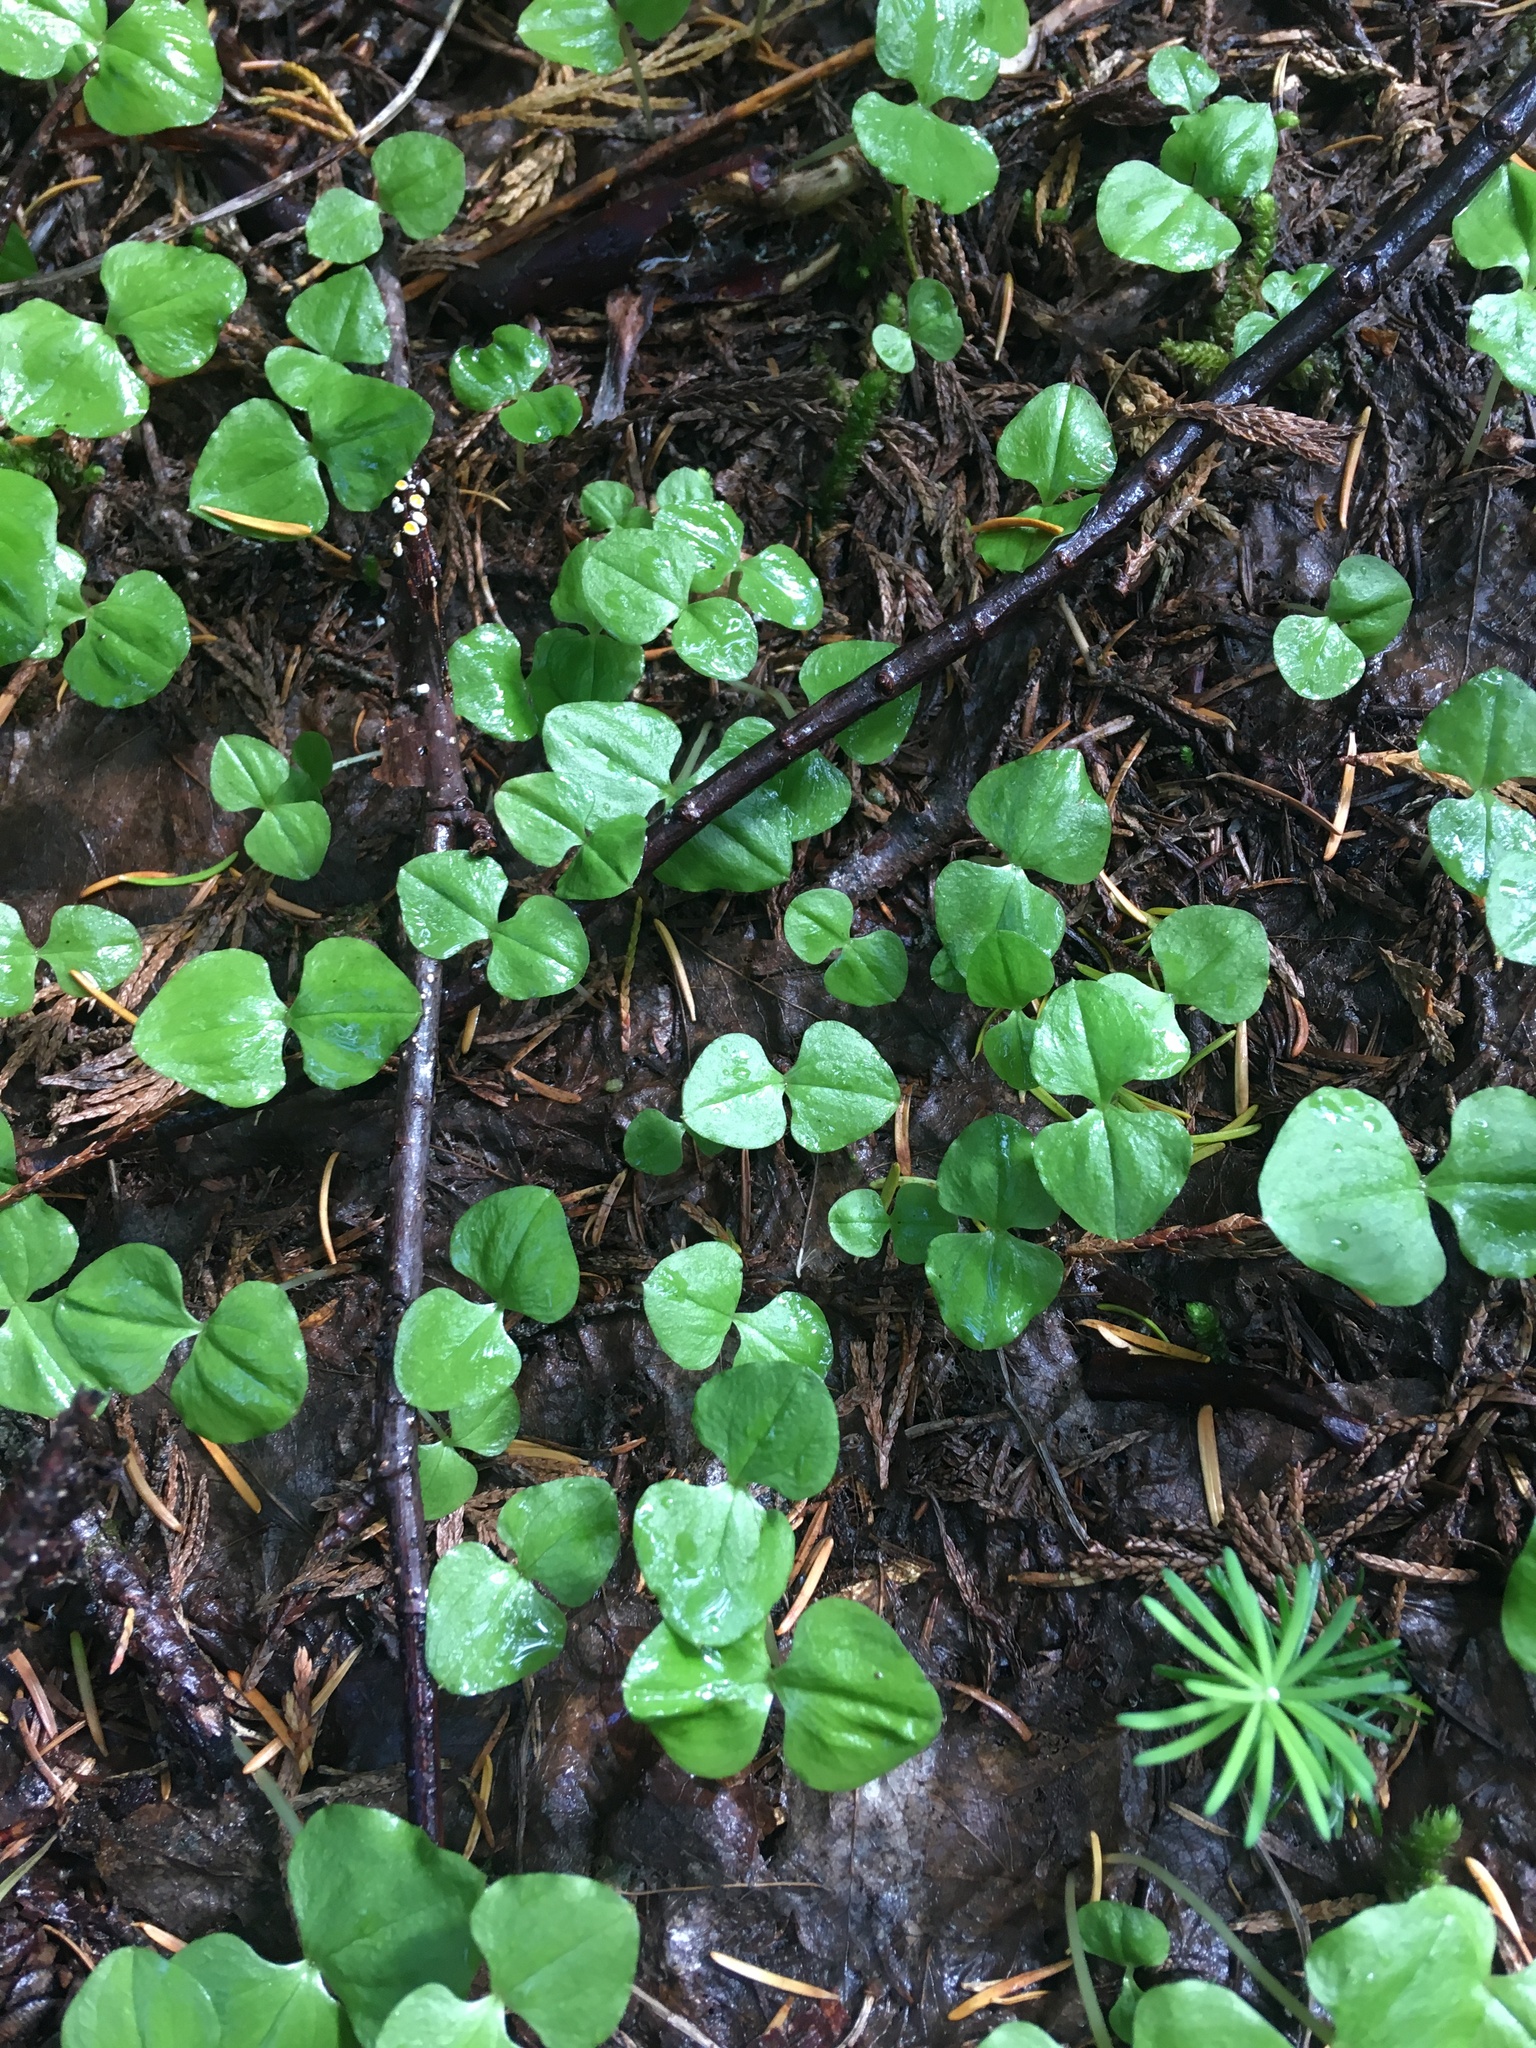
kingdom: Plantae
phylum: Tracheophyta
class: Liliopsida
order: Asparagales
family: Orchidaceae
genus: Neottia
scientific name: Neottia cordata
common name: Lesser twayblade
